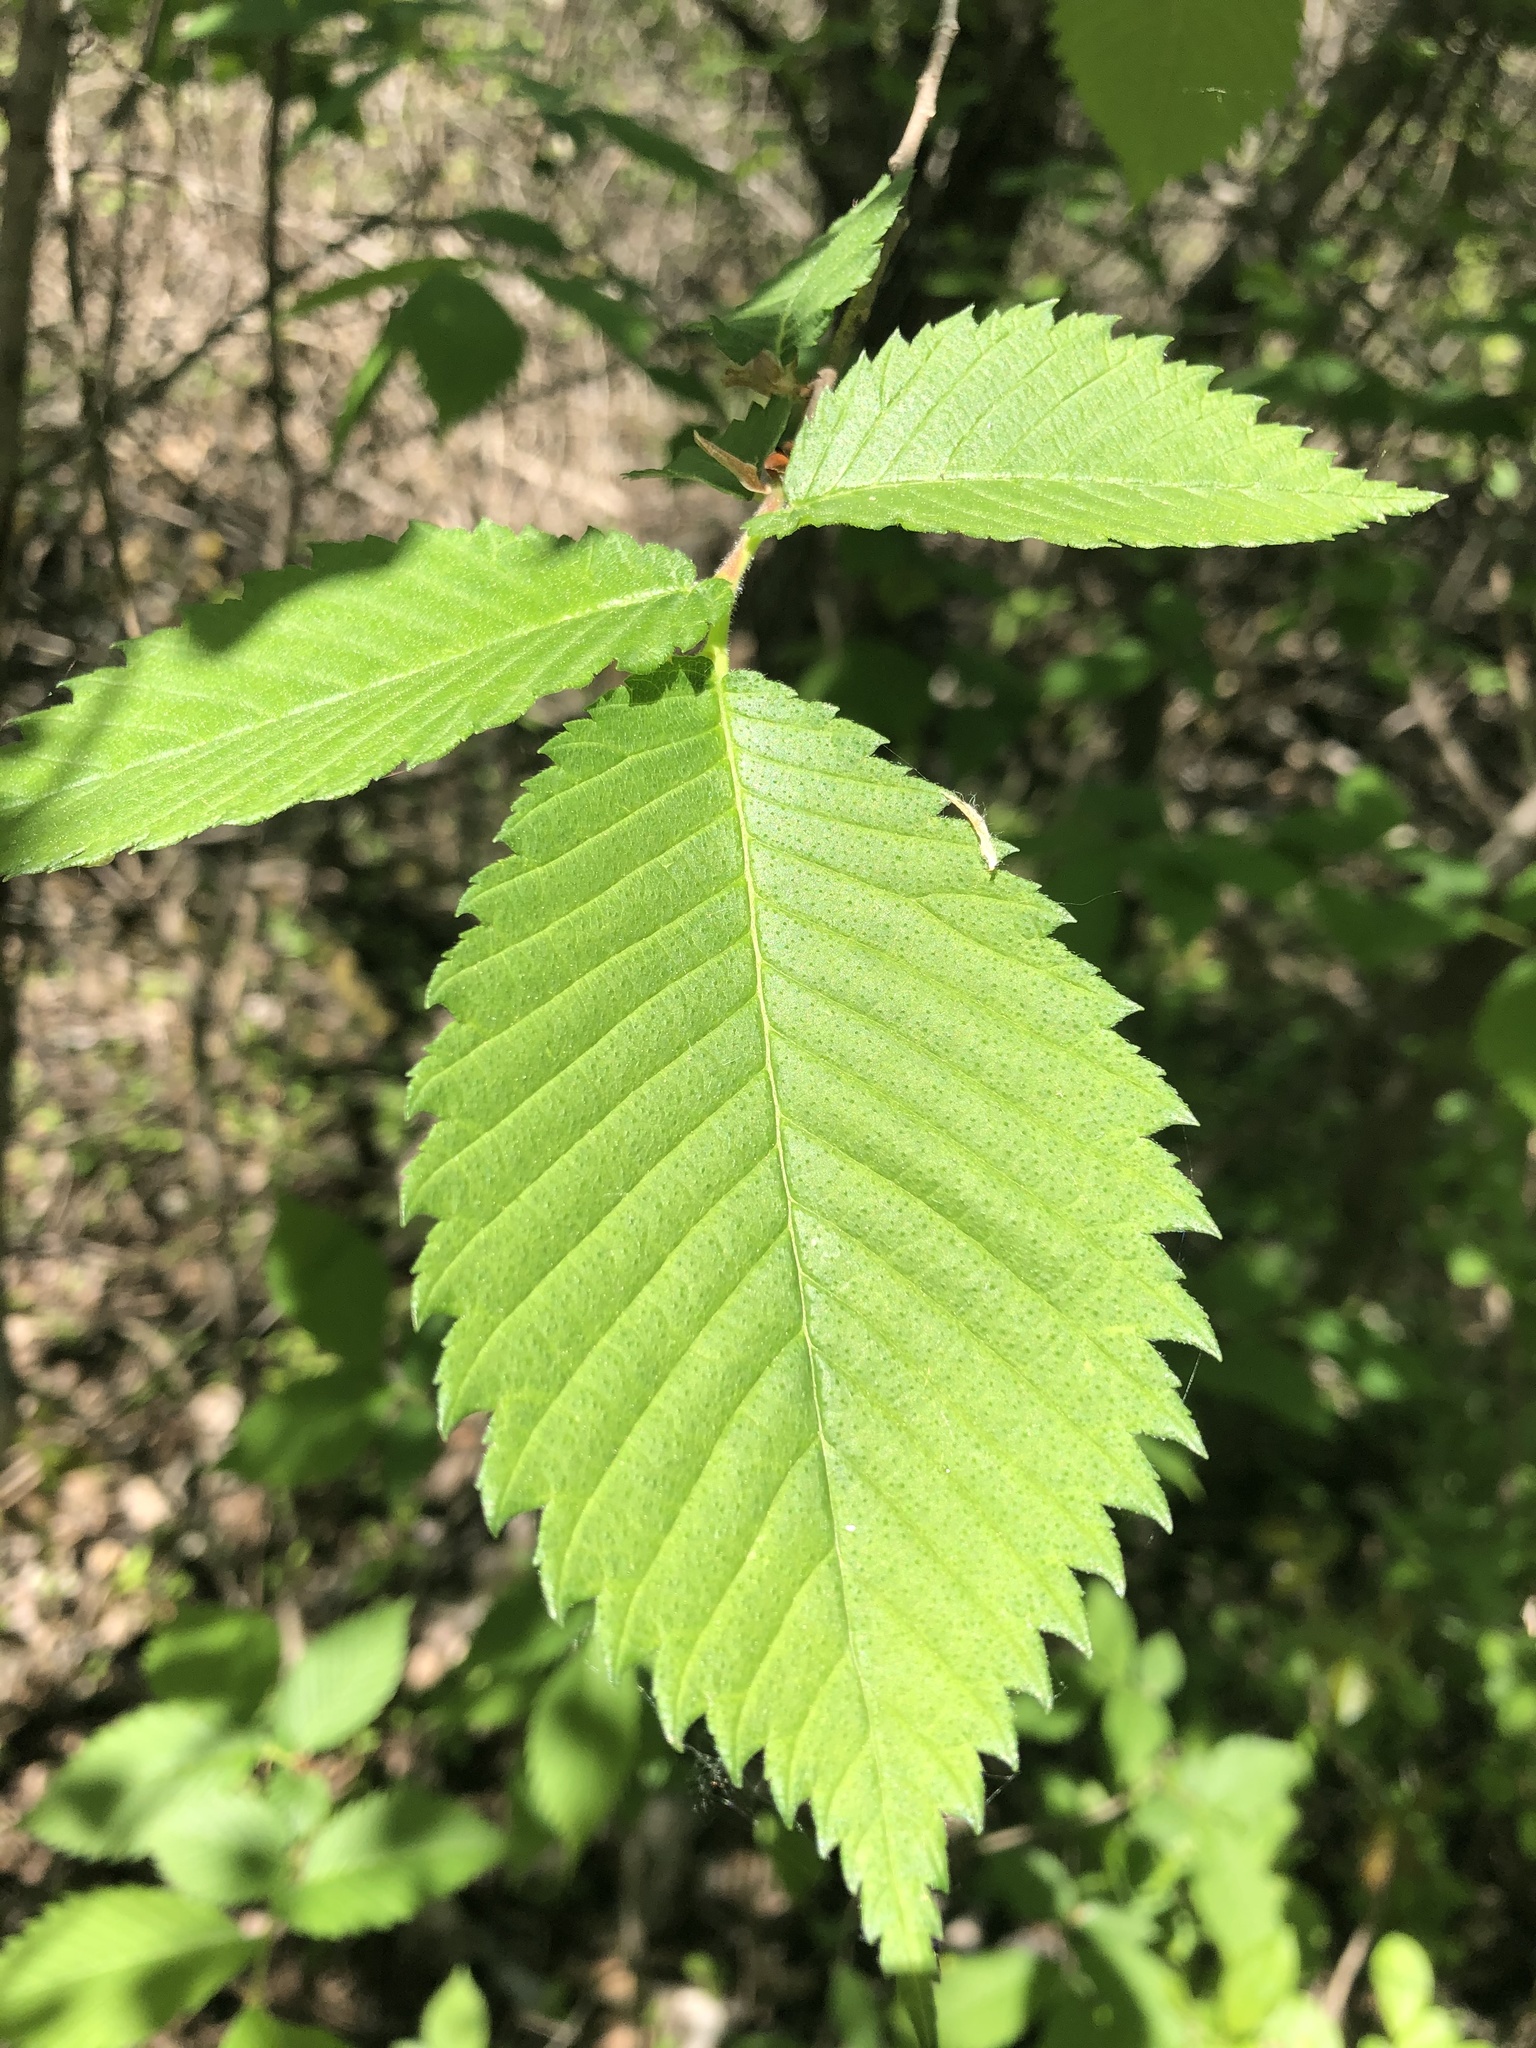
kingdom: Plantae
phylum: Tracheophyta
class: Magnoliopsida
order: Rosales
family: Ulmaceae
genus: Ulmus
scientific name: Ulmus americana
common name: American elm
